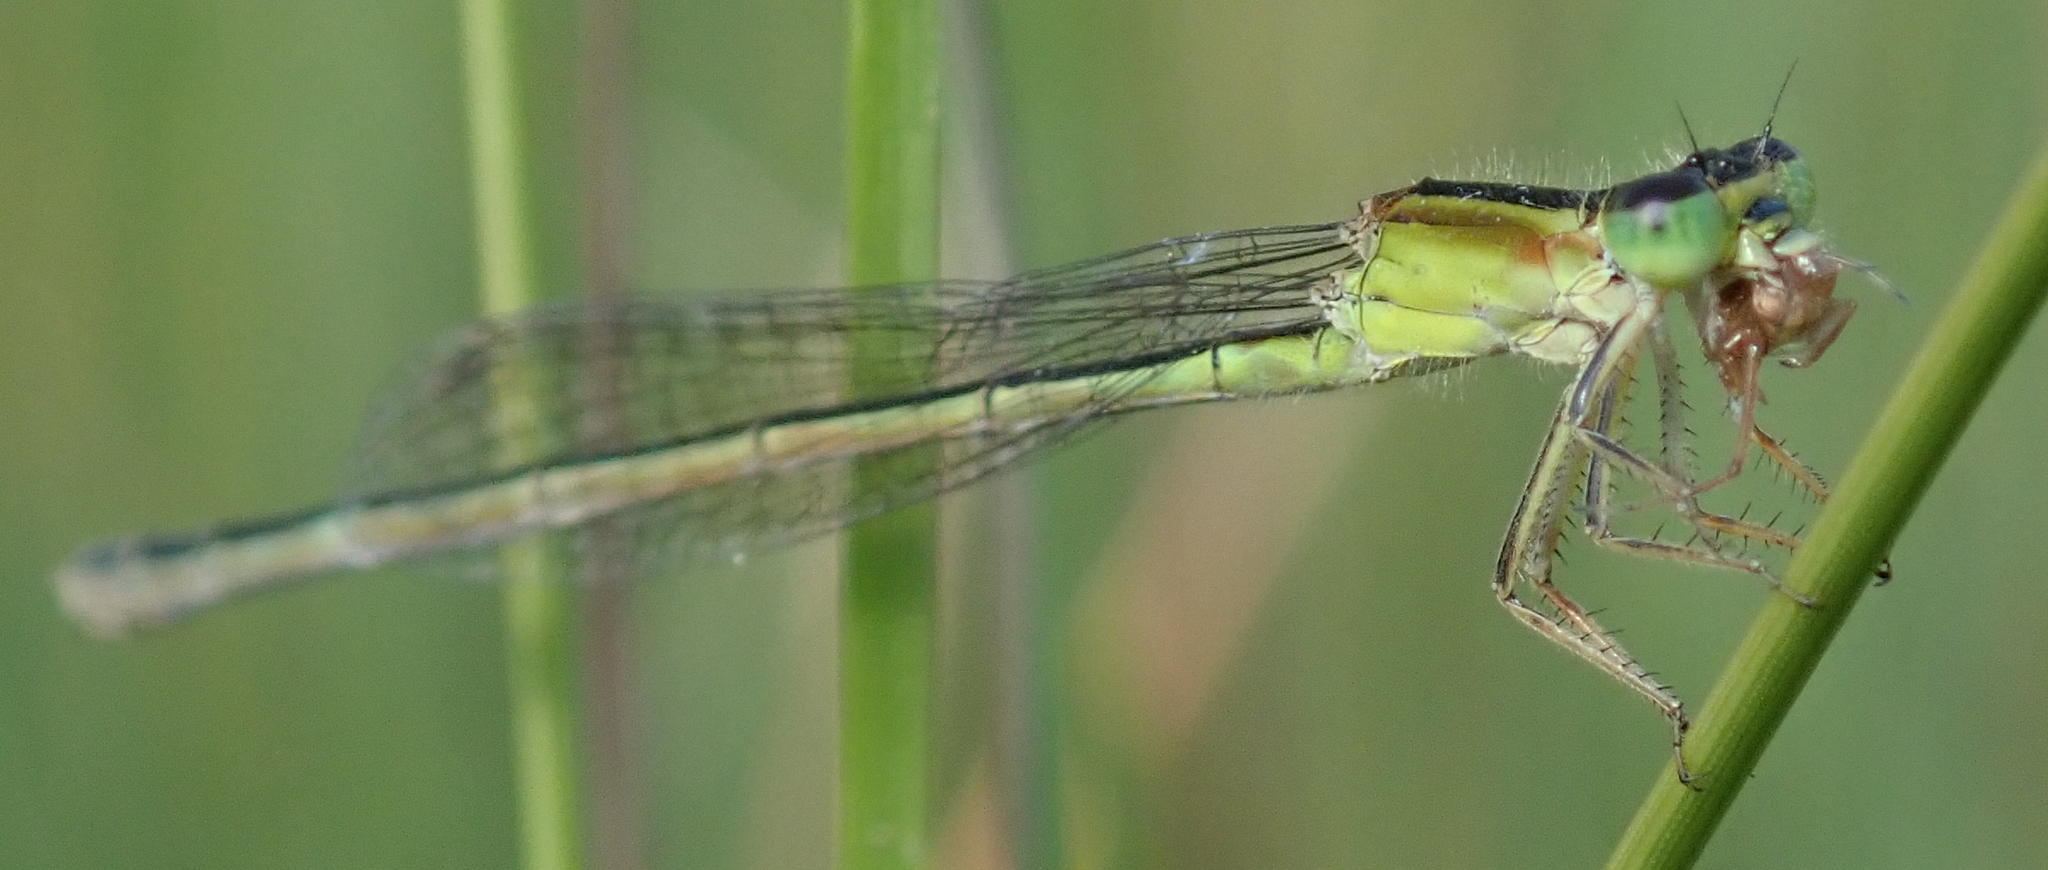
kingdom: Animalia
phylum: Arthropoda
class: Insecta
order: Odonata
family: Coenagrionidae
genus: Ischnura
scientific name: Ischnura senegalensis
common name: Tropical bluetail
